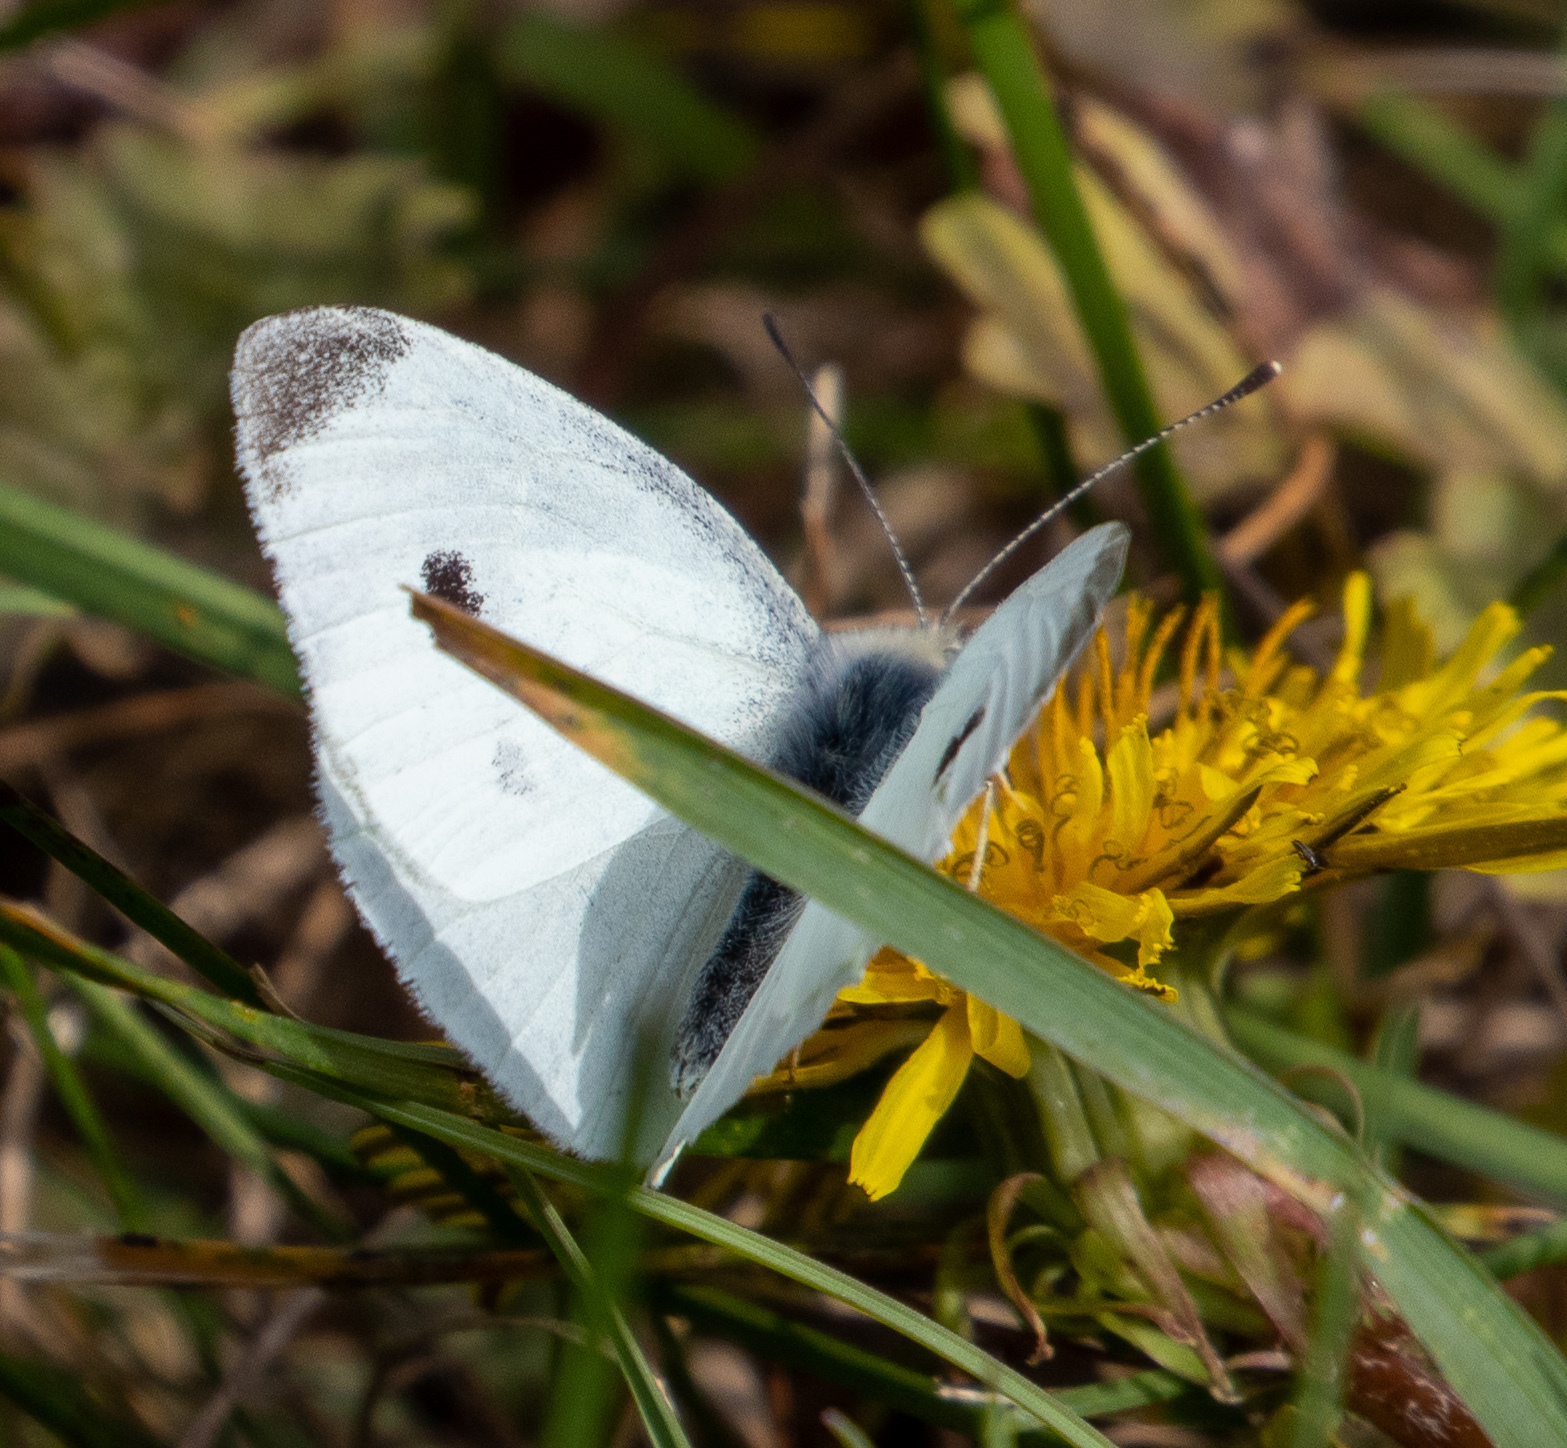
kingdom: Animalia
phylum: Arthropoda
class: Insecta
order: Lepidoptera
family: Pieridae
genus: Pieris
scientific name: Pieris rapae
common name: Small white
